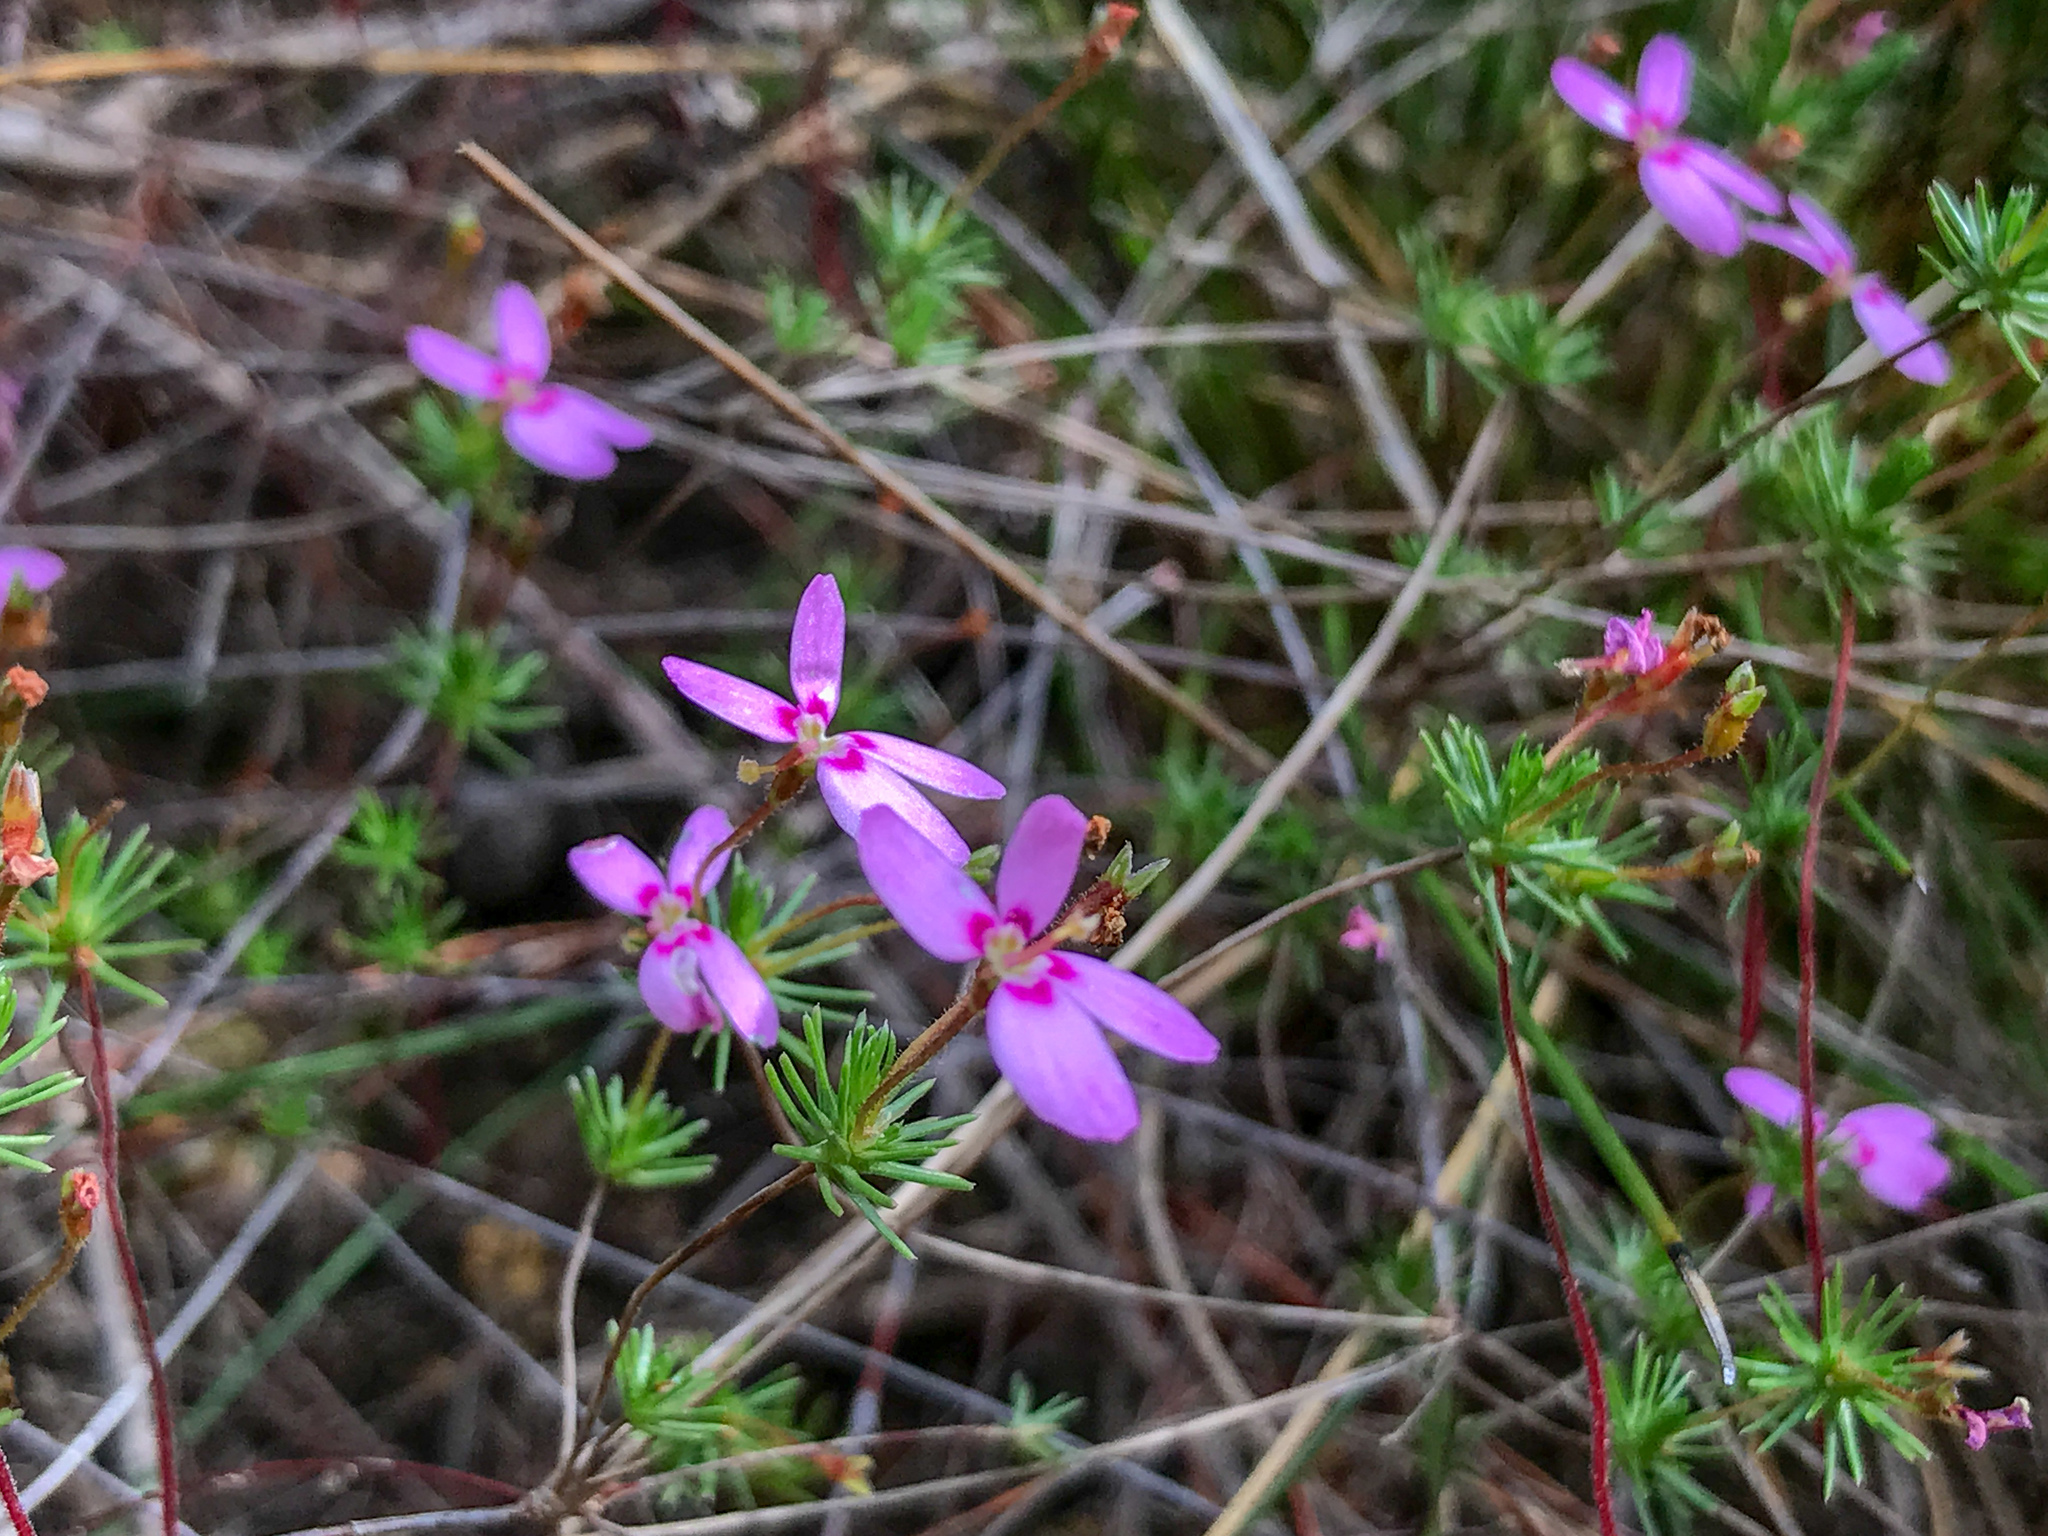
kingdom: Plantae
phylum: Tracheophyta
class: Magnoliopsida
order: Asterales
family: Stylidiaceae
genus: Stylidium
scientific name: Stylidium repens
